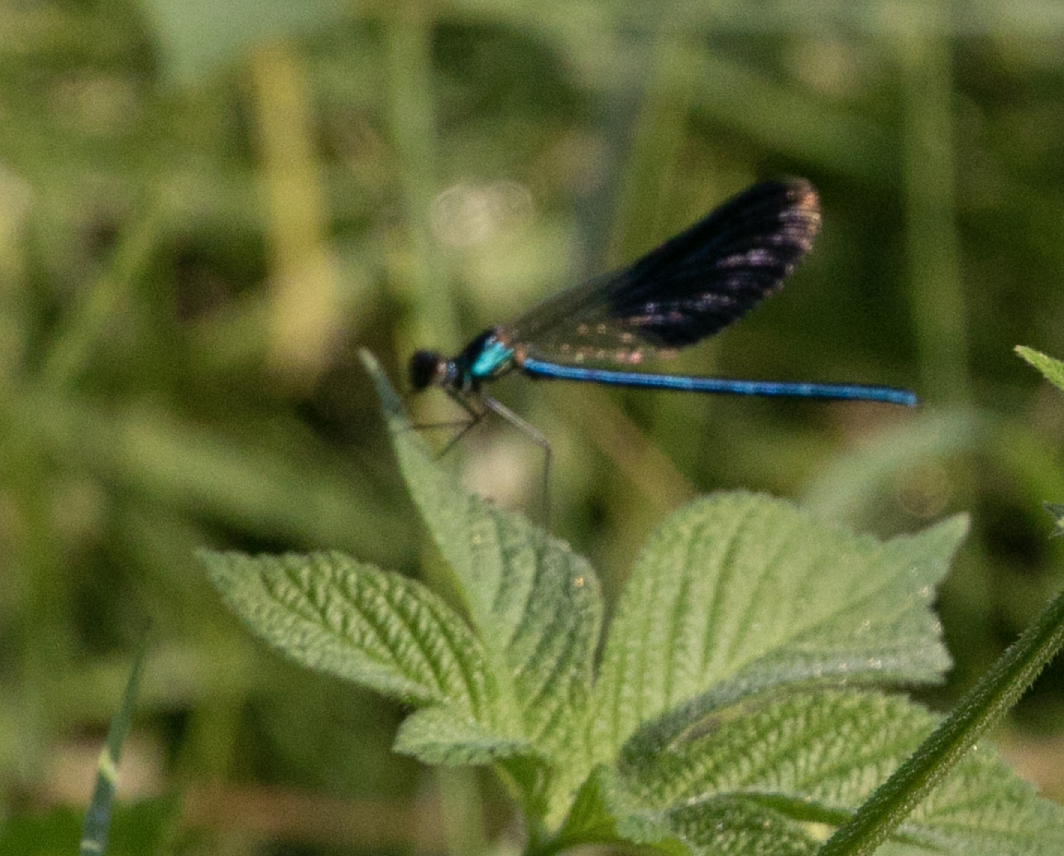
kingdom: Animalia
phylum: Arthropoda
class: Insecta
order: Odonata
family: Calopterygidae
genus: Calopteryx
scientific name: Calopteryx splendens
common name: Banded demoiselle
